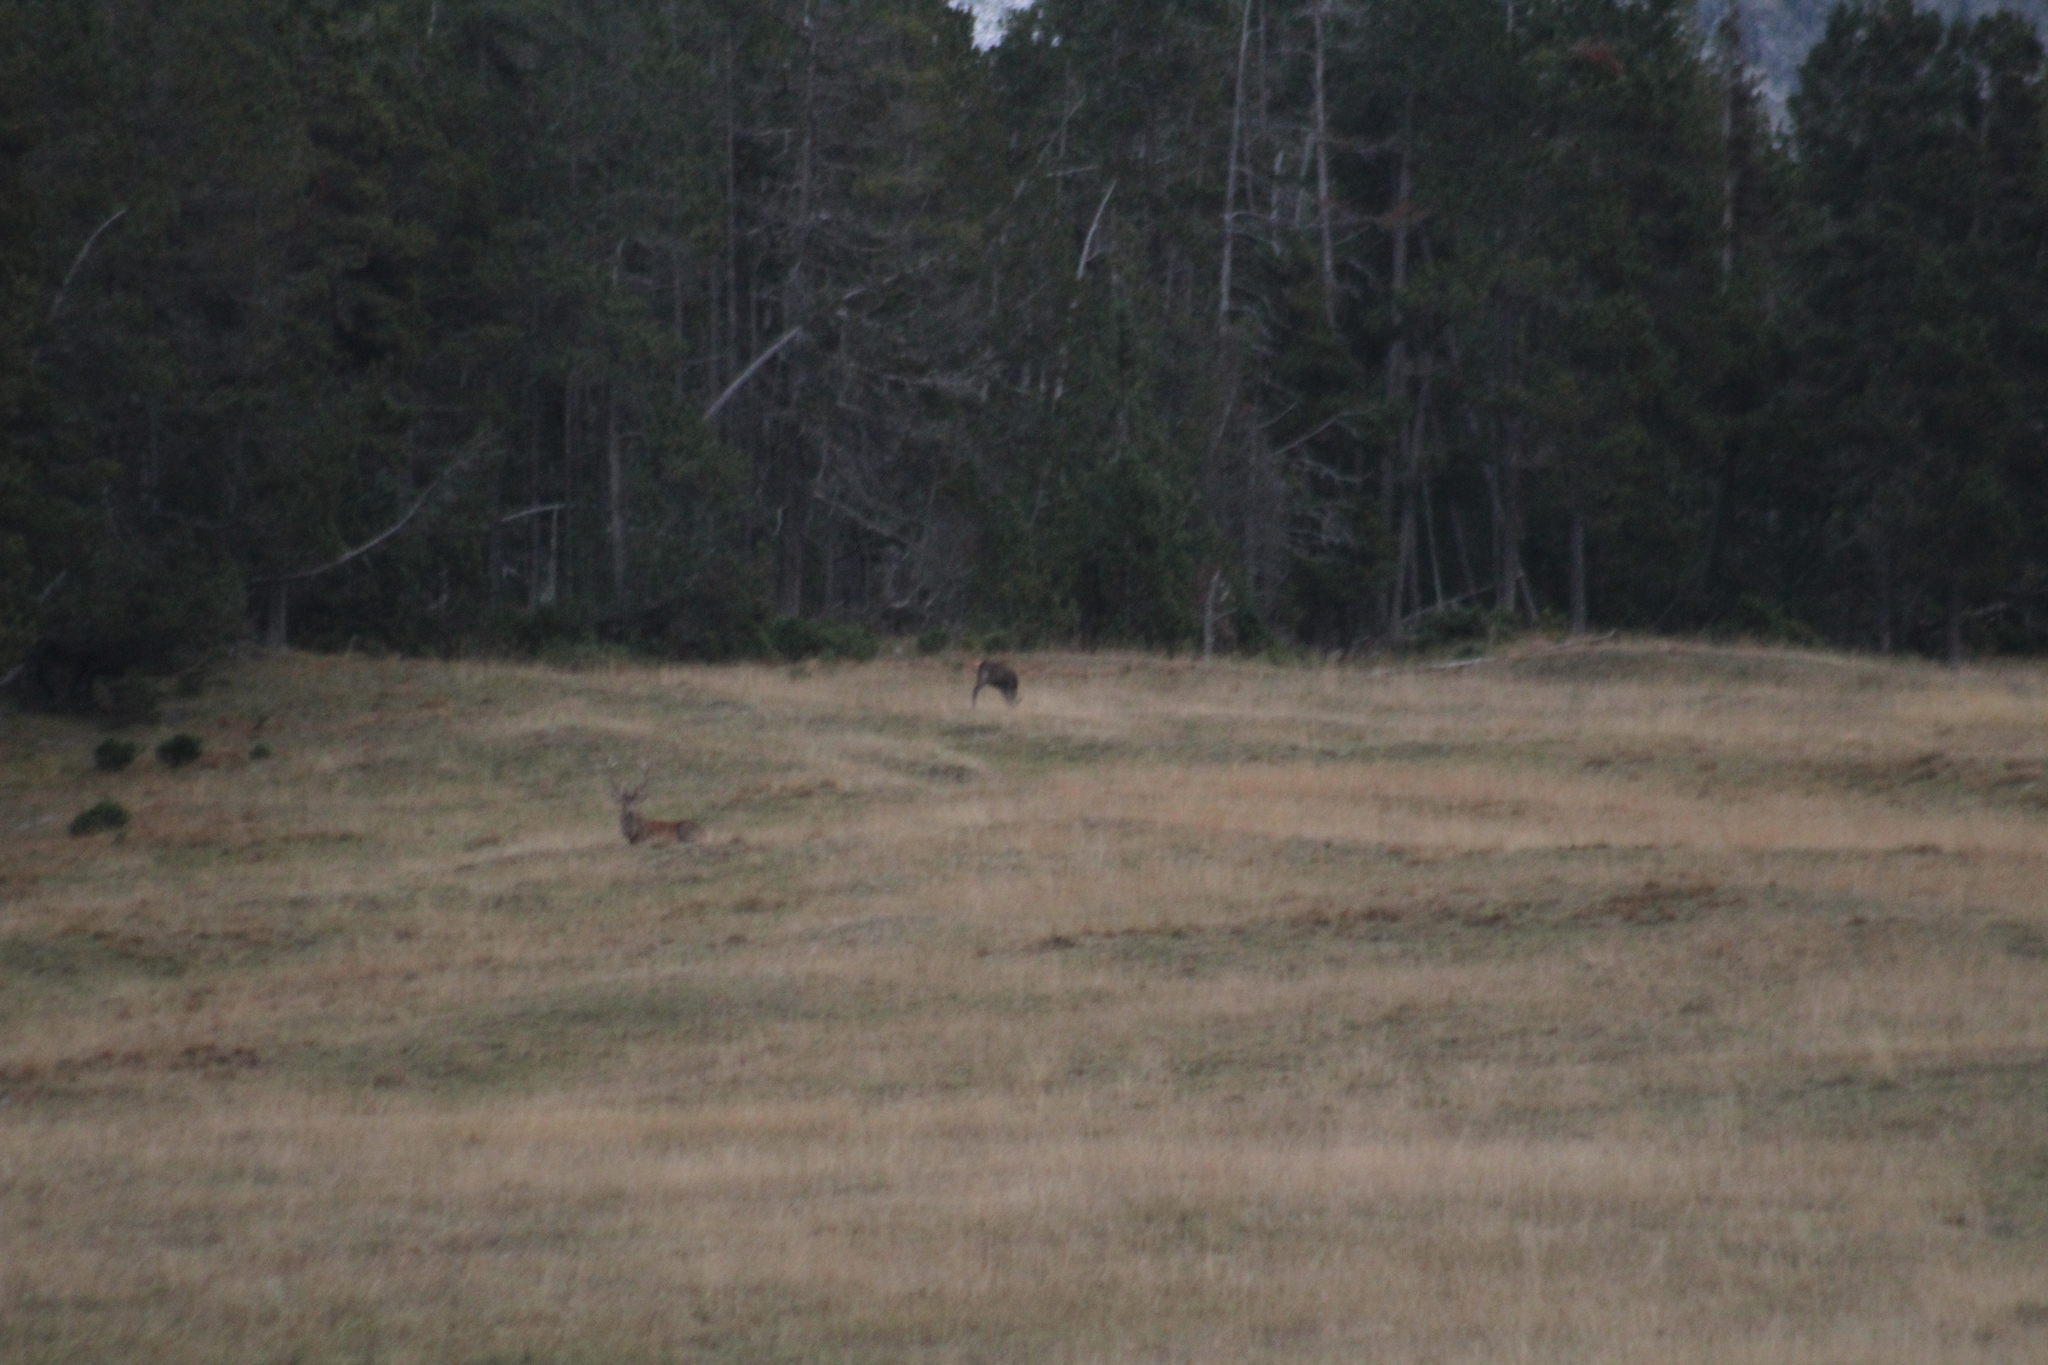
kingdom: Animalia
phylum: Chordata
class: Mammalia
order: Artiodactyla
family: Cervidae
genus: Cervus
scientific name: Cervus elaphus
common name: Red deer
